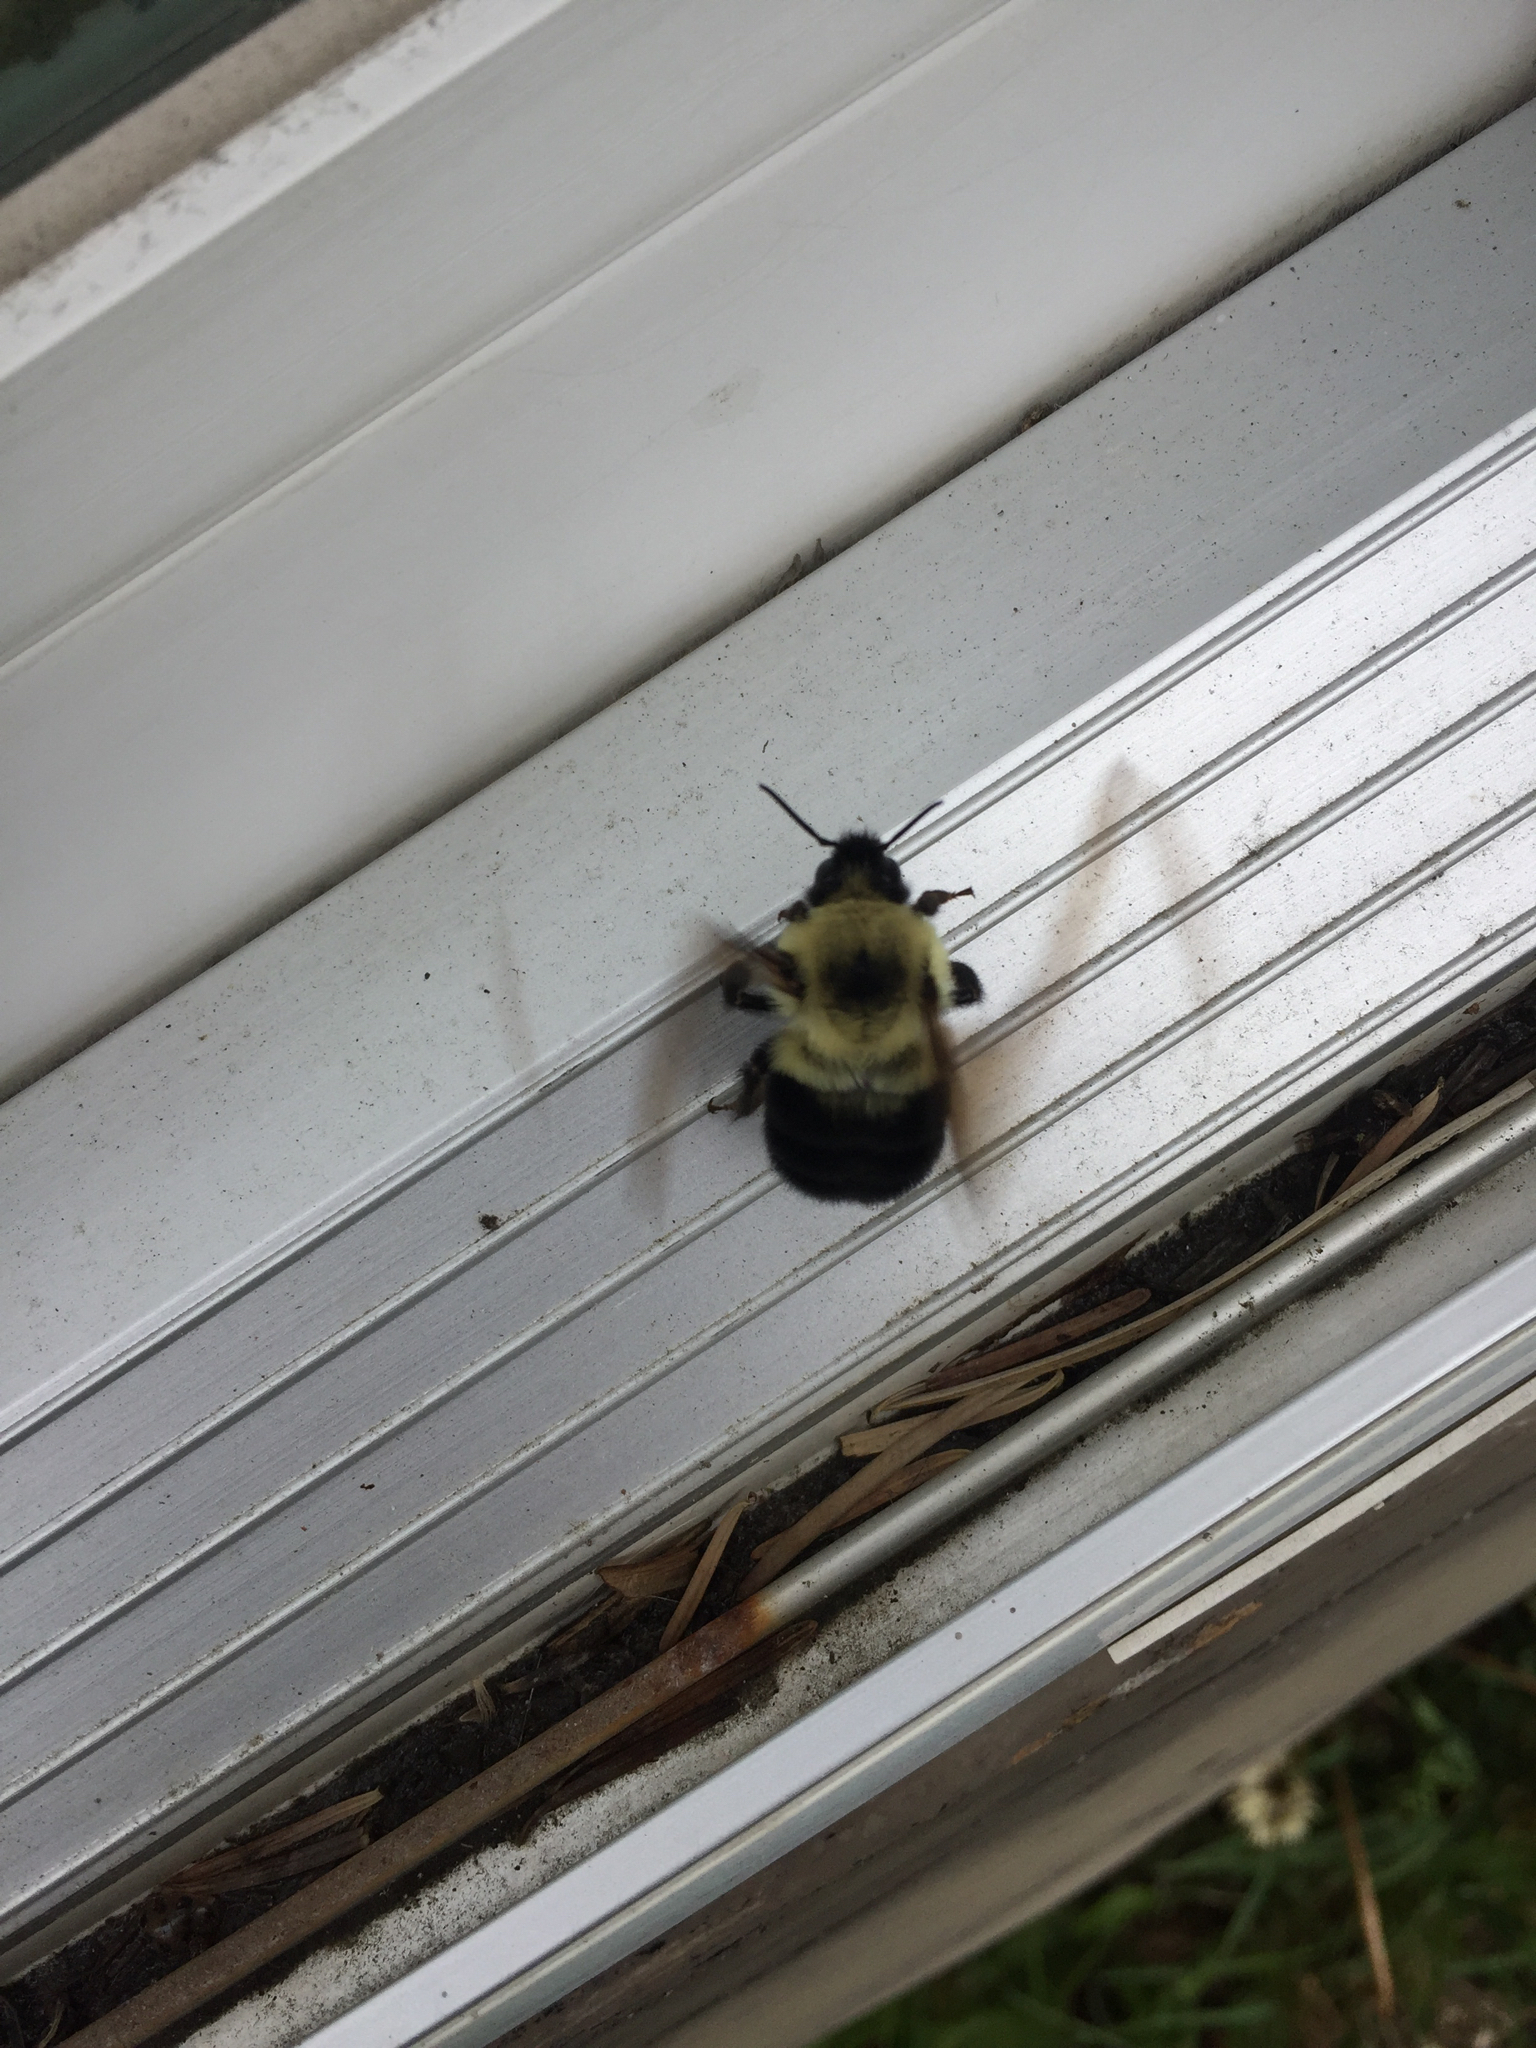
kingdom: Animalia
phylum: Arthropoda
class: Insecta
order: Hymenoptera
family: Apidae
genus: Bombus
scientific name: Bombus bimaculatus
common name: Two-spotted bumble bee
